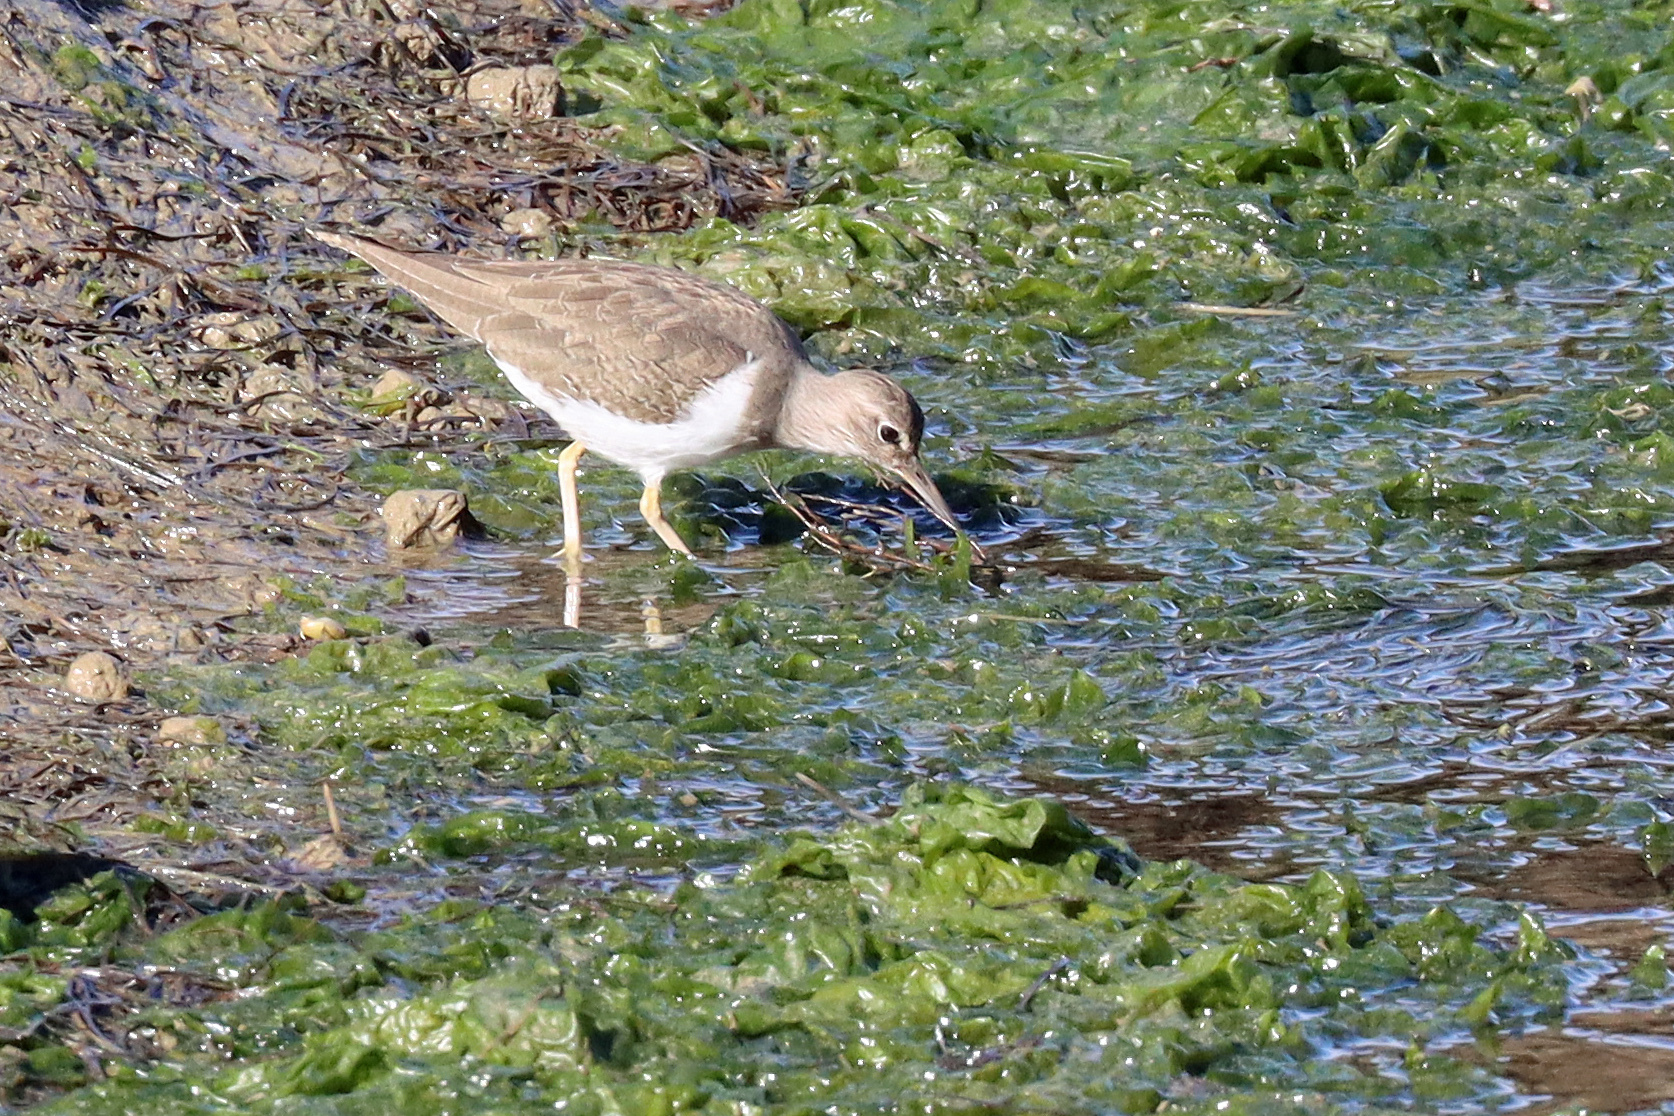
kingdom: Animalia
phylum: Chordata
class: Aves
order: Charadriiformes
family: Scolopacidae
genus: Actitis
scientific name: Actitis hypoleucos
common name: Common sandpiper
